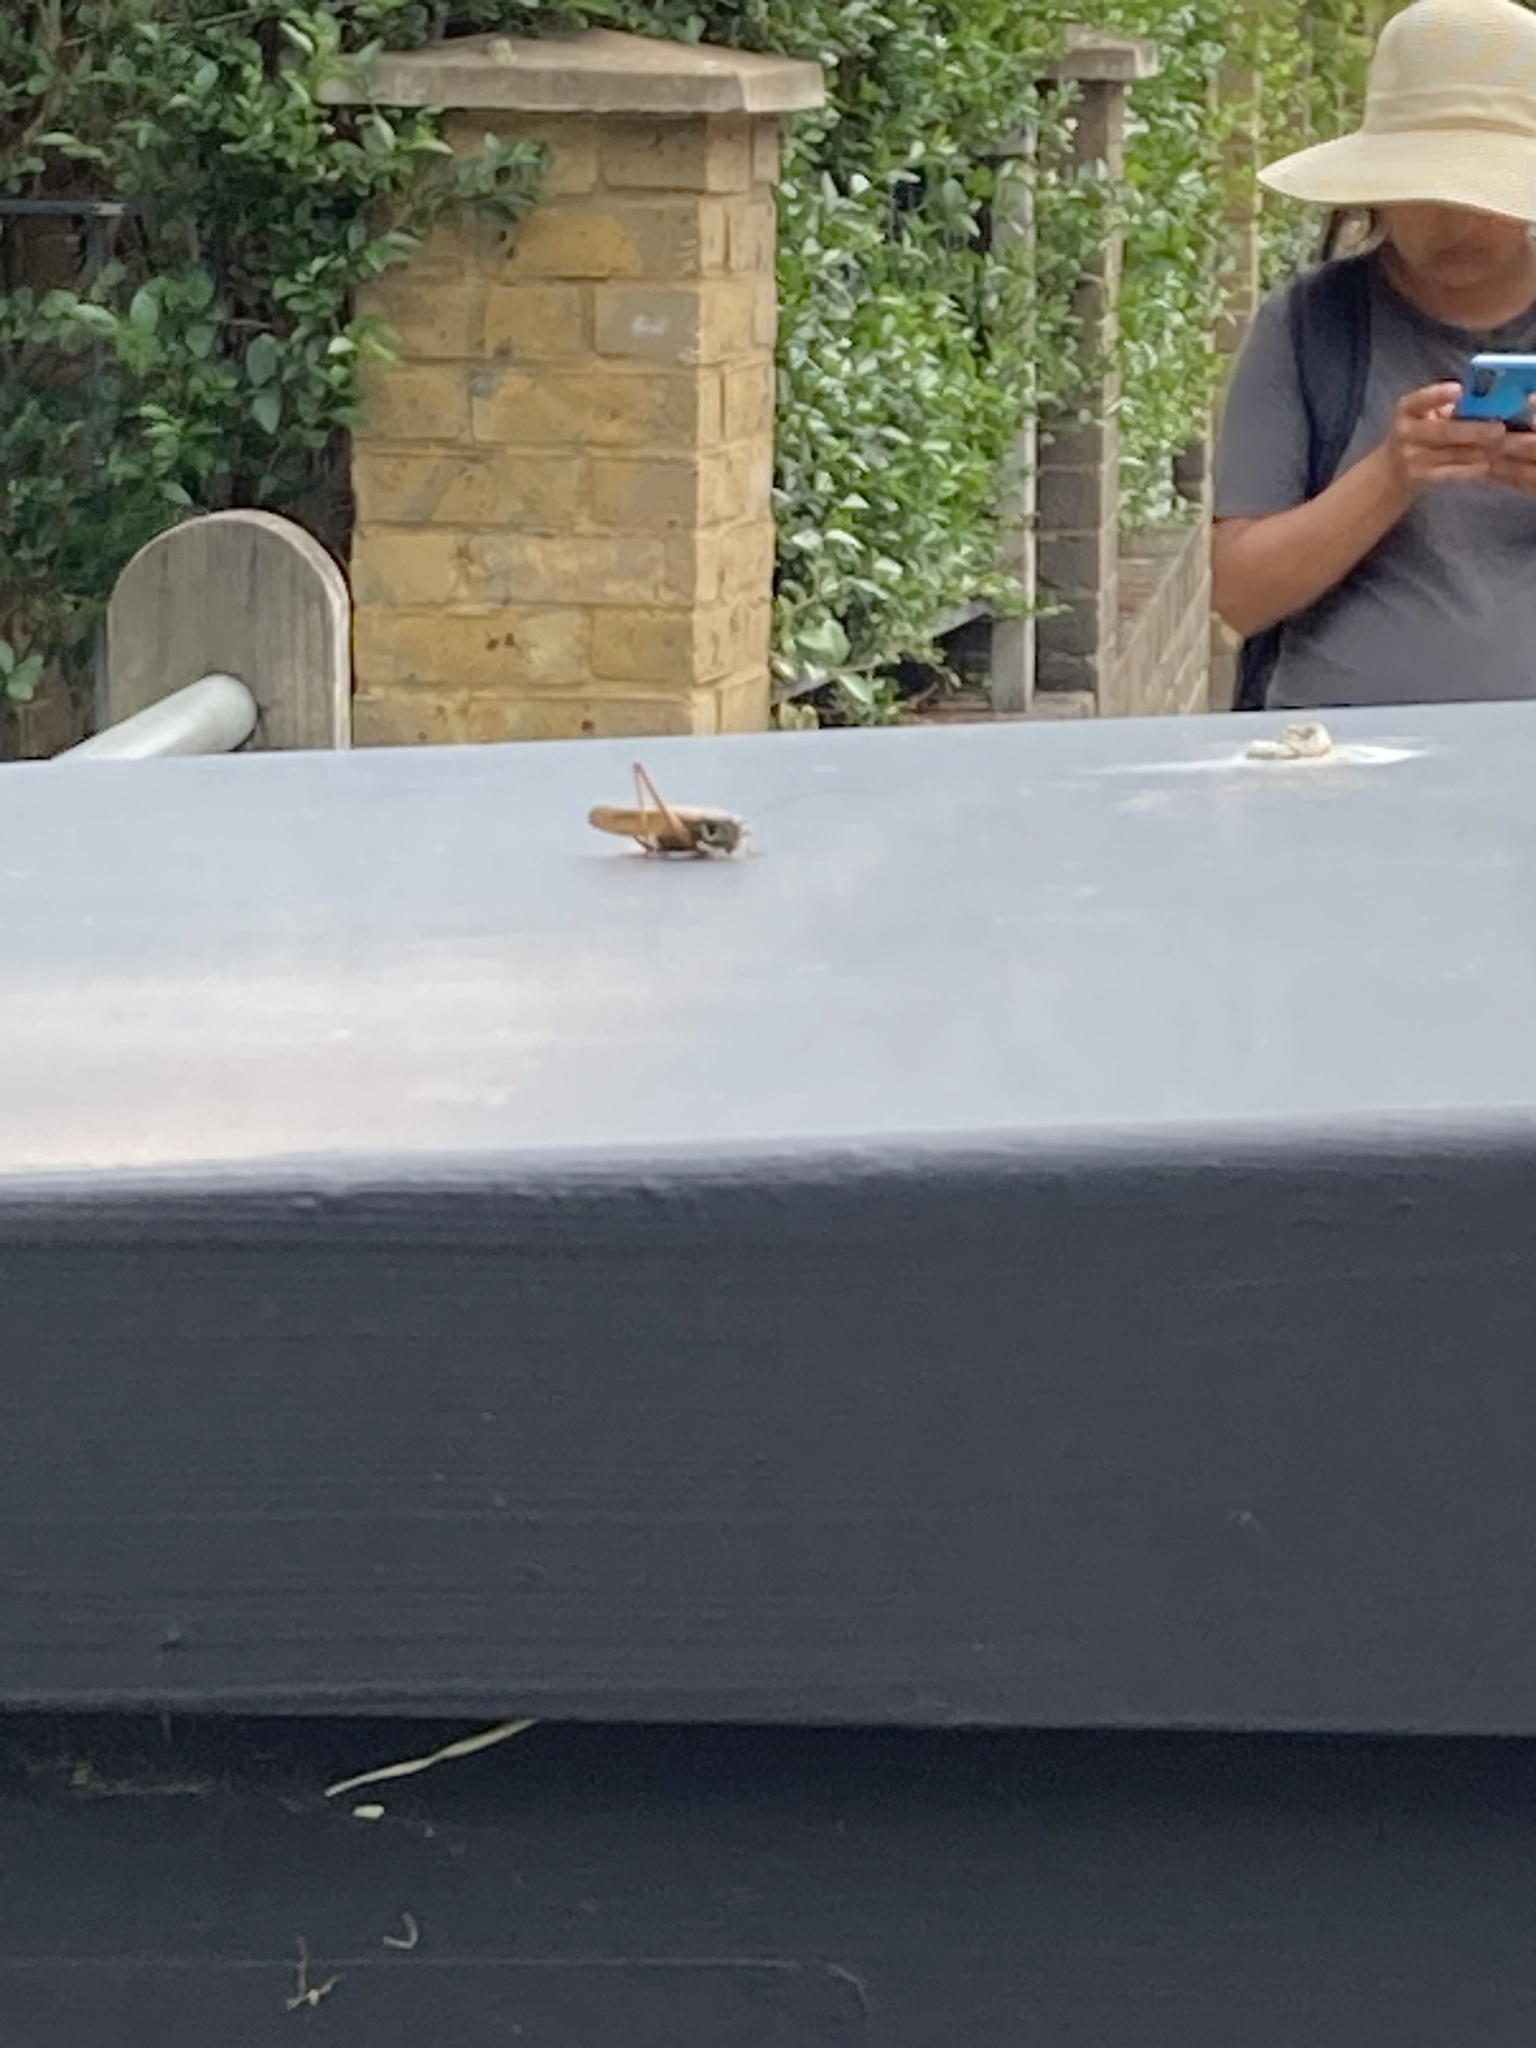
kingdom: Animalia
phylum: Arthropoda
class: Insecta
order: Orthoptera
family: Tettigoniidae
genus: Roeseliana
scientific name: Roeseliana roeselii
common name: Roesel's bush cricket
